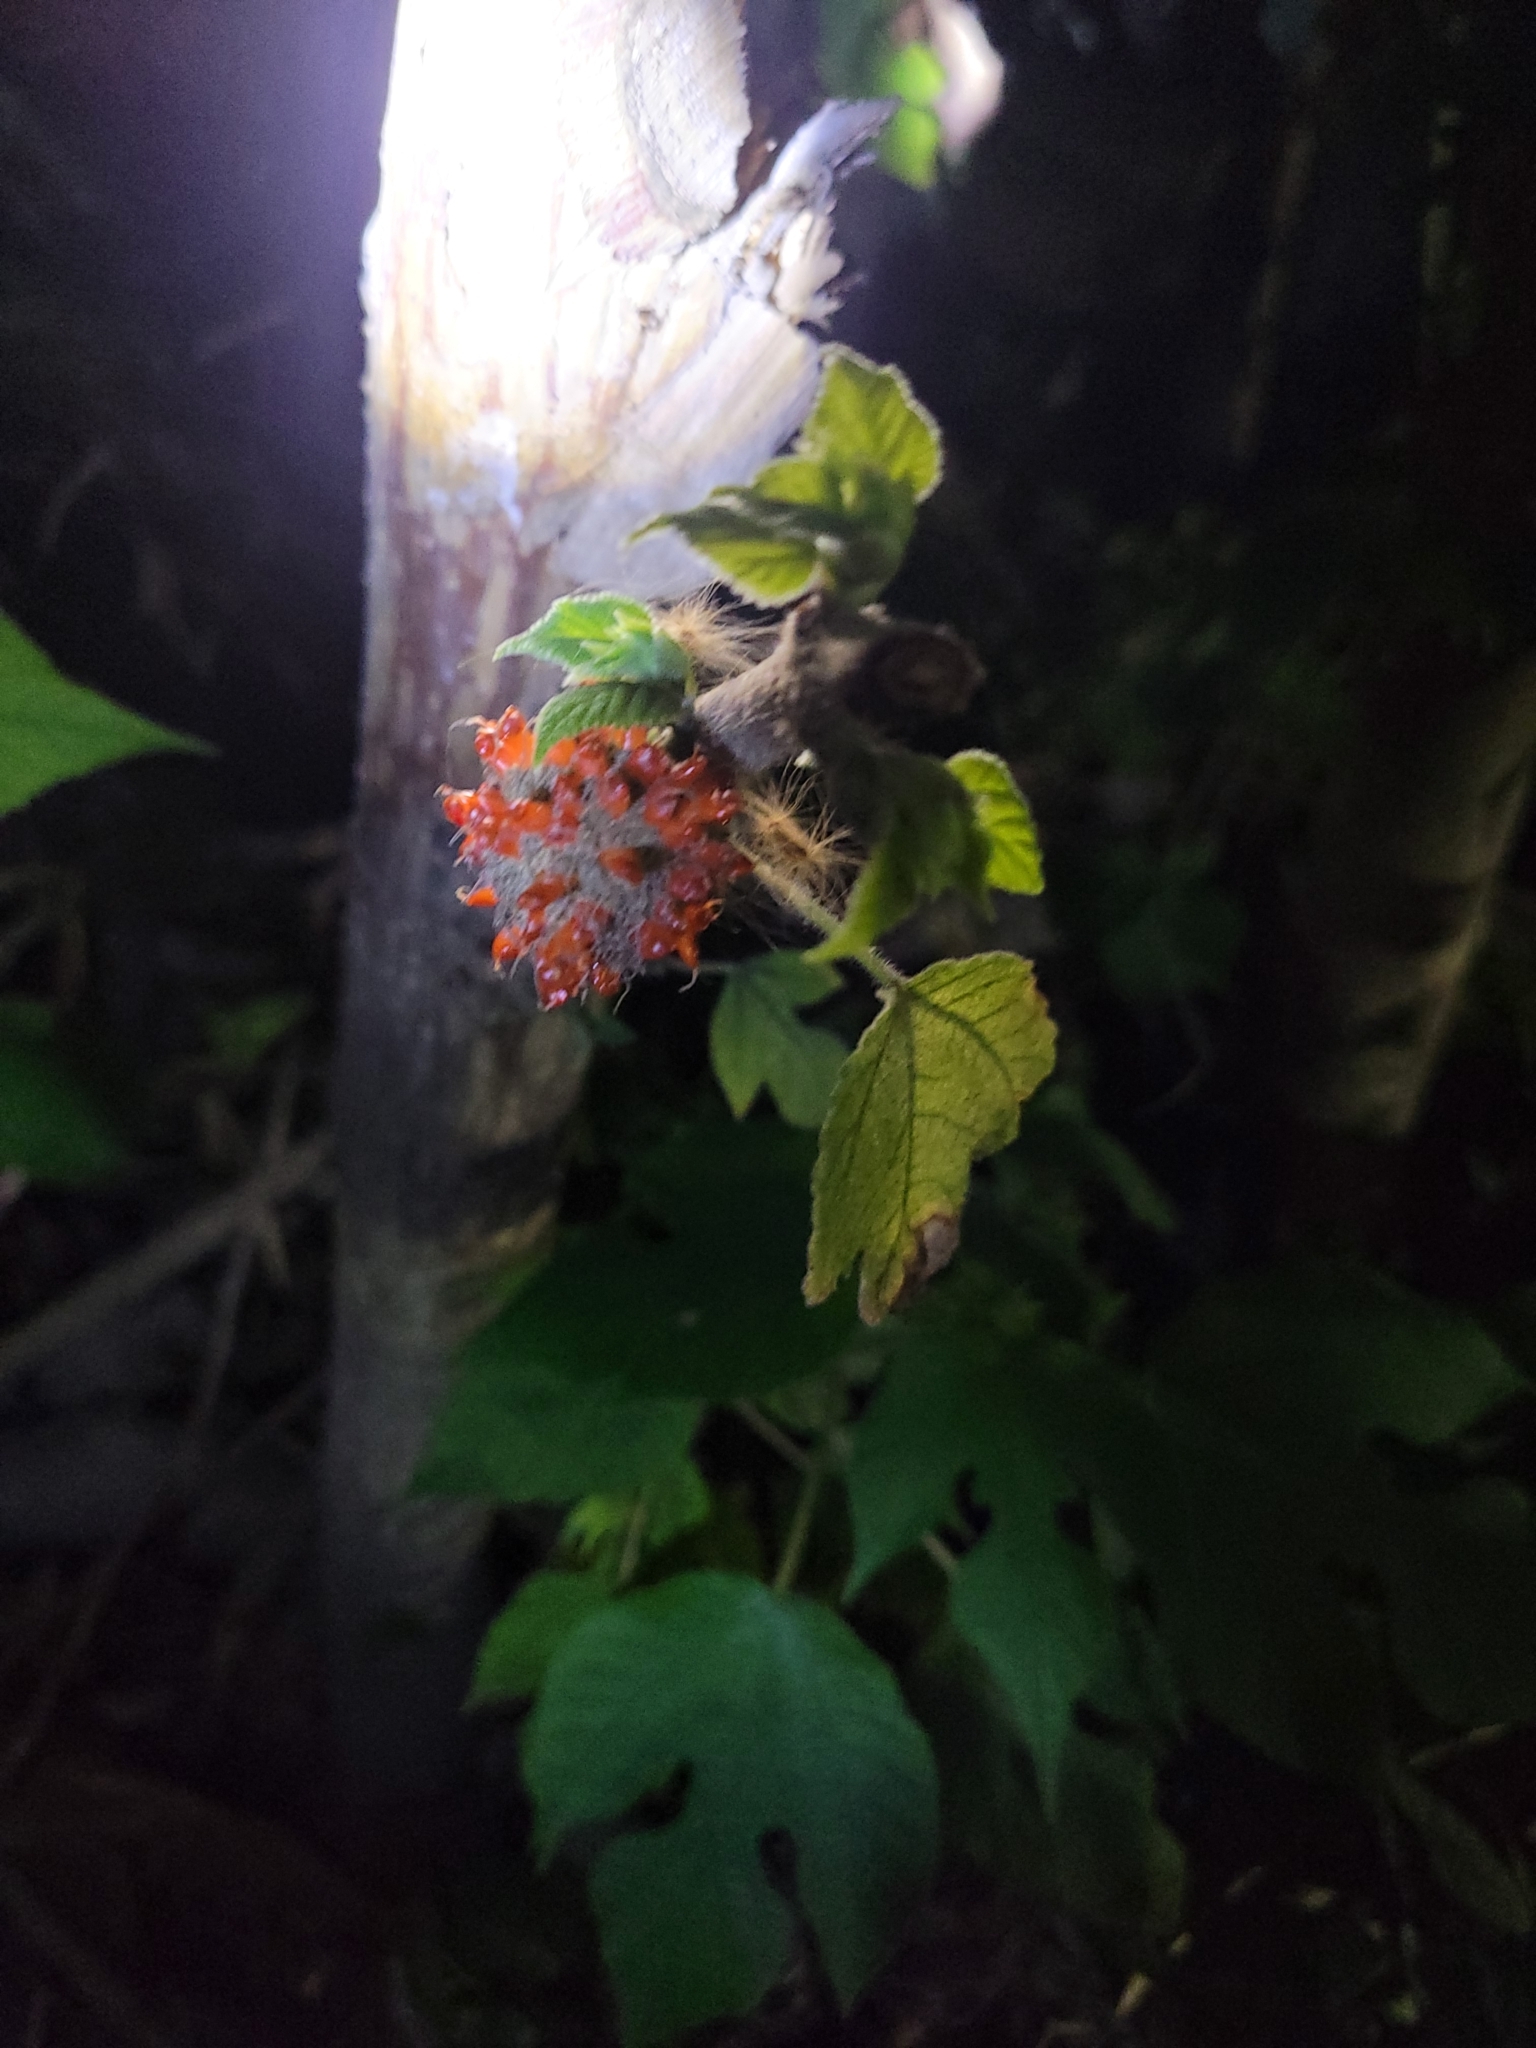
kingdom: Plantae
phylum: Tracheophyta
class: Magnoliopsida
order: Rosales
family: Moraceae
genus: Broussonetia
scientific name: Broussonetia papyrifera
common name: Paper mulberry
